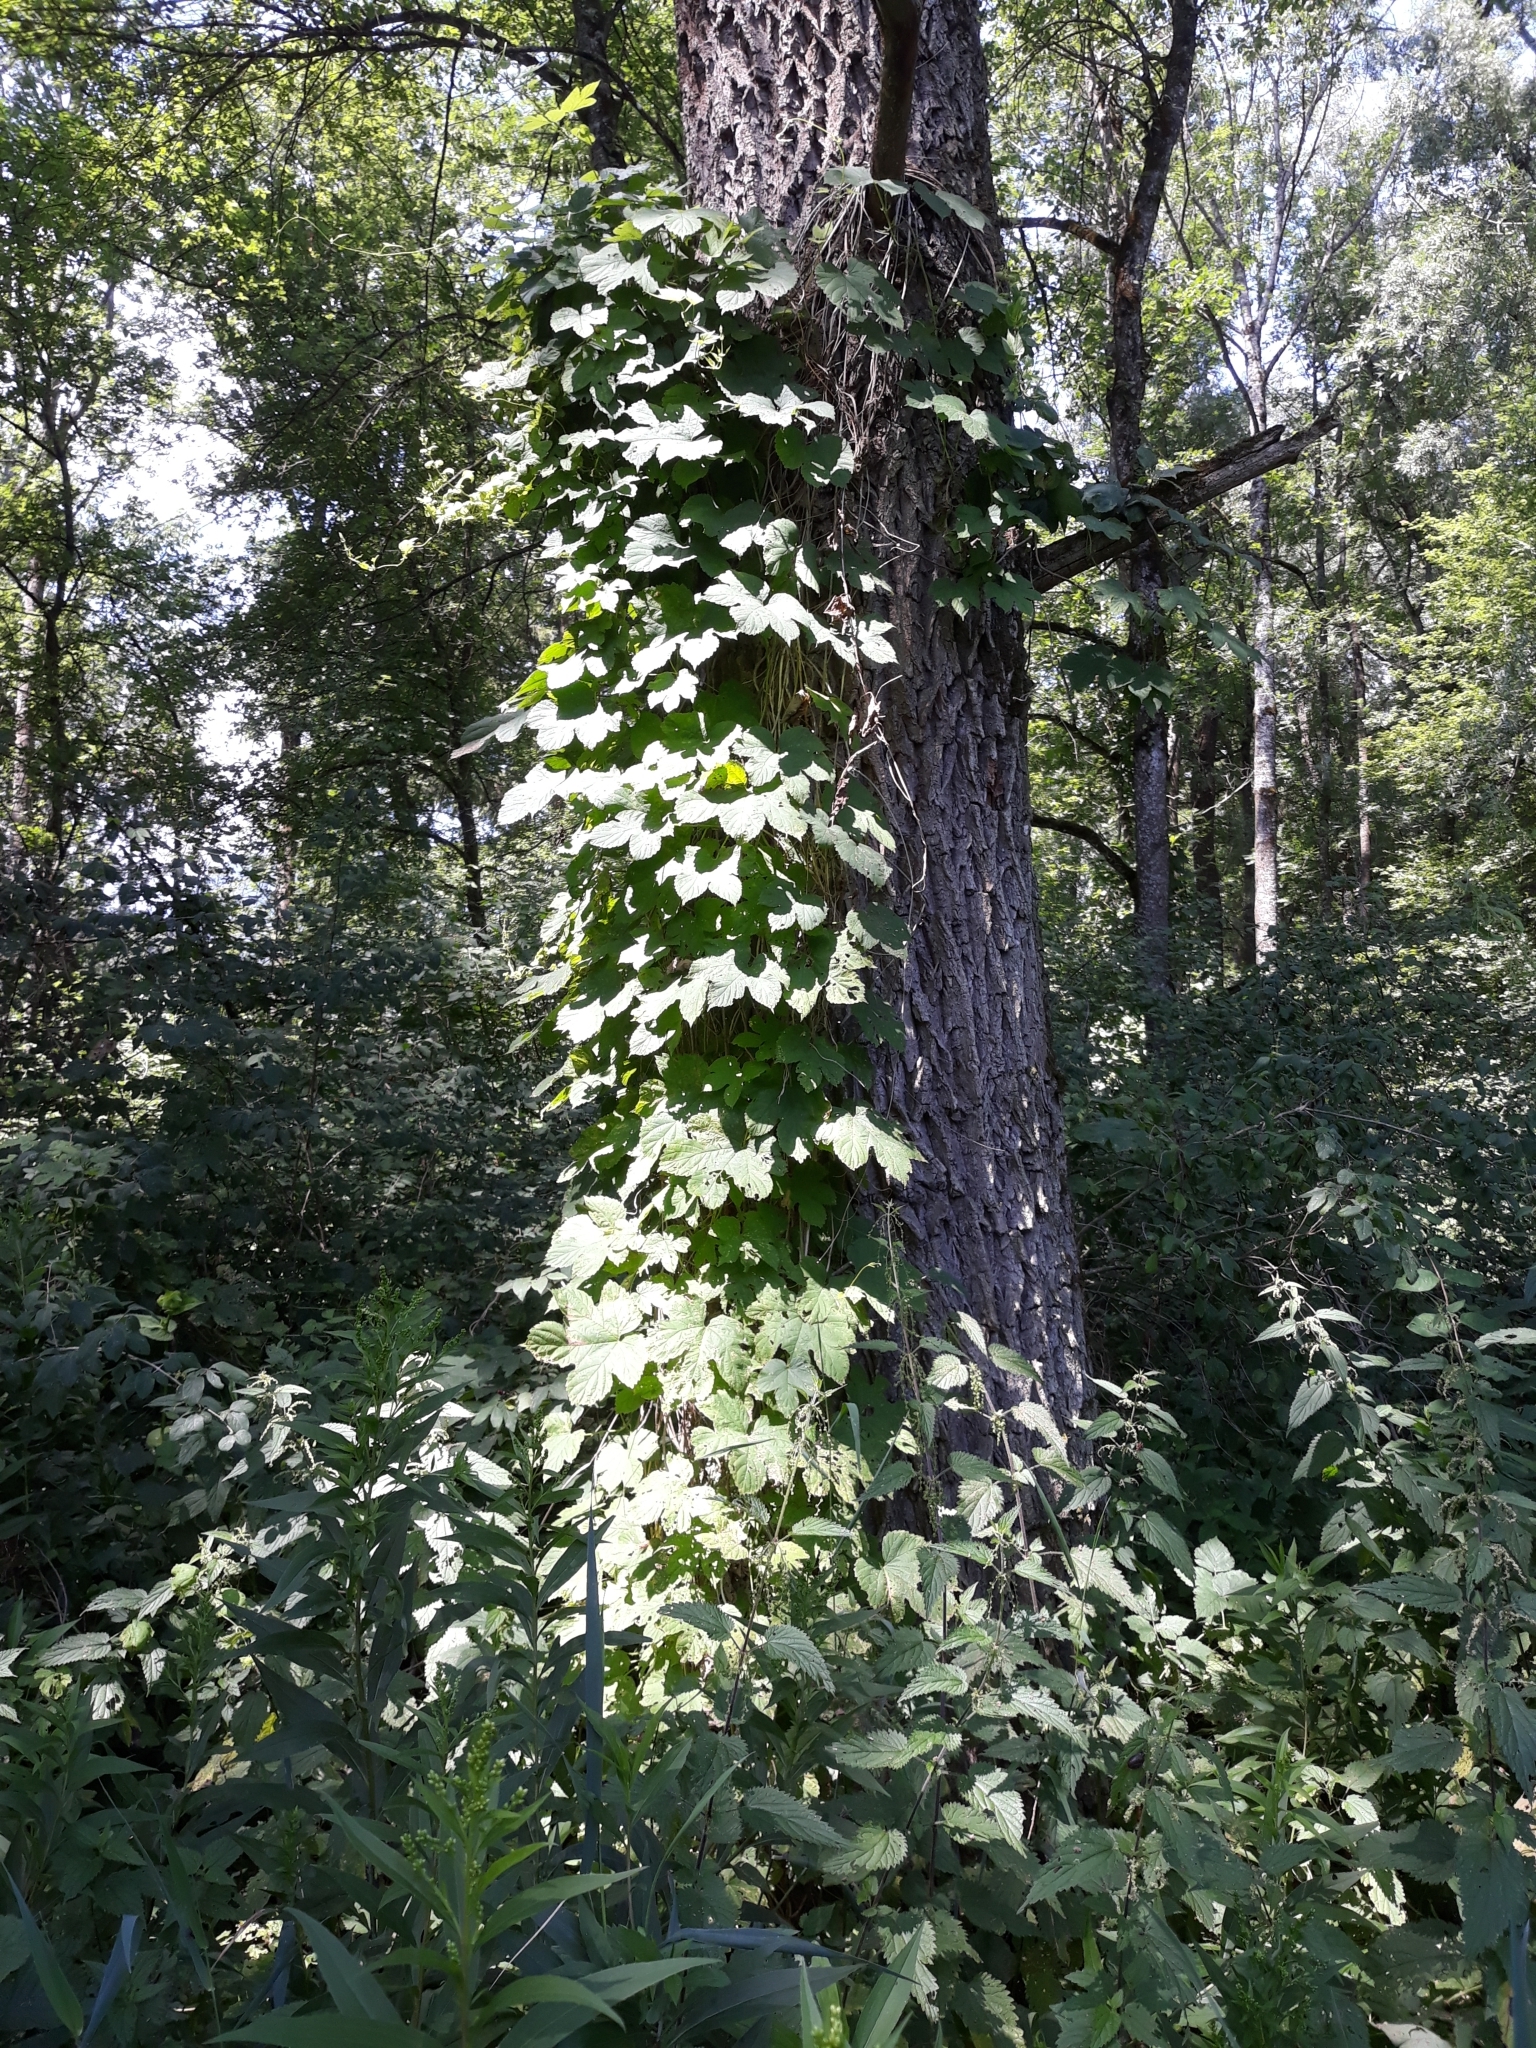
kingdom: Plantae
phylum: Tracheophyta
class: Magnoliopsida
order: Rosales
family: Cannabaceae
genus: Humulus
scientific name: Humulus lupulus
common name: Hop
